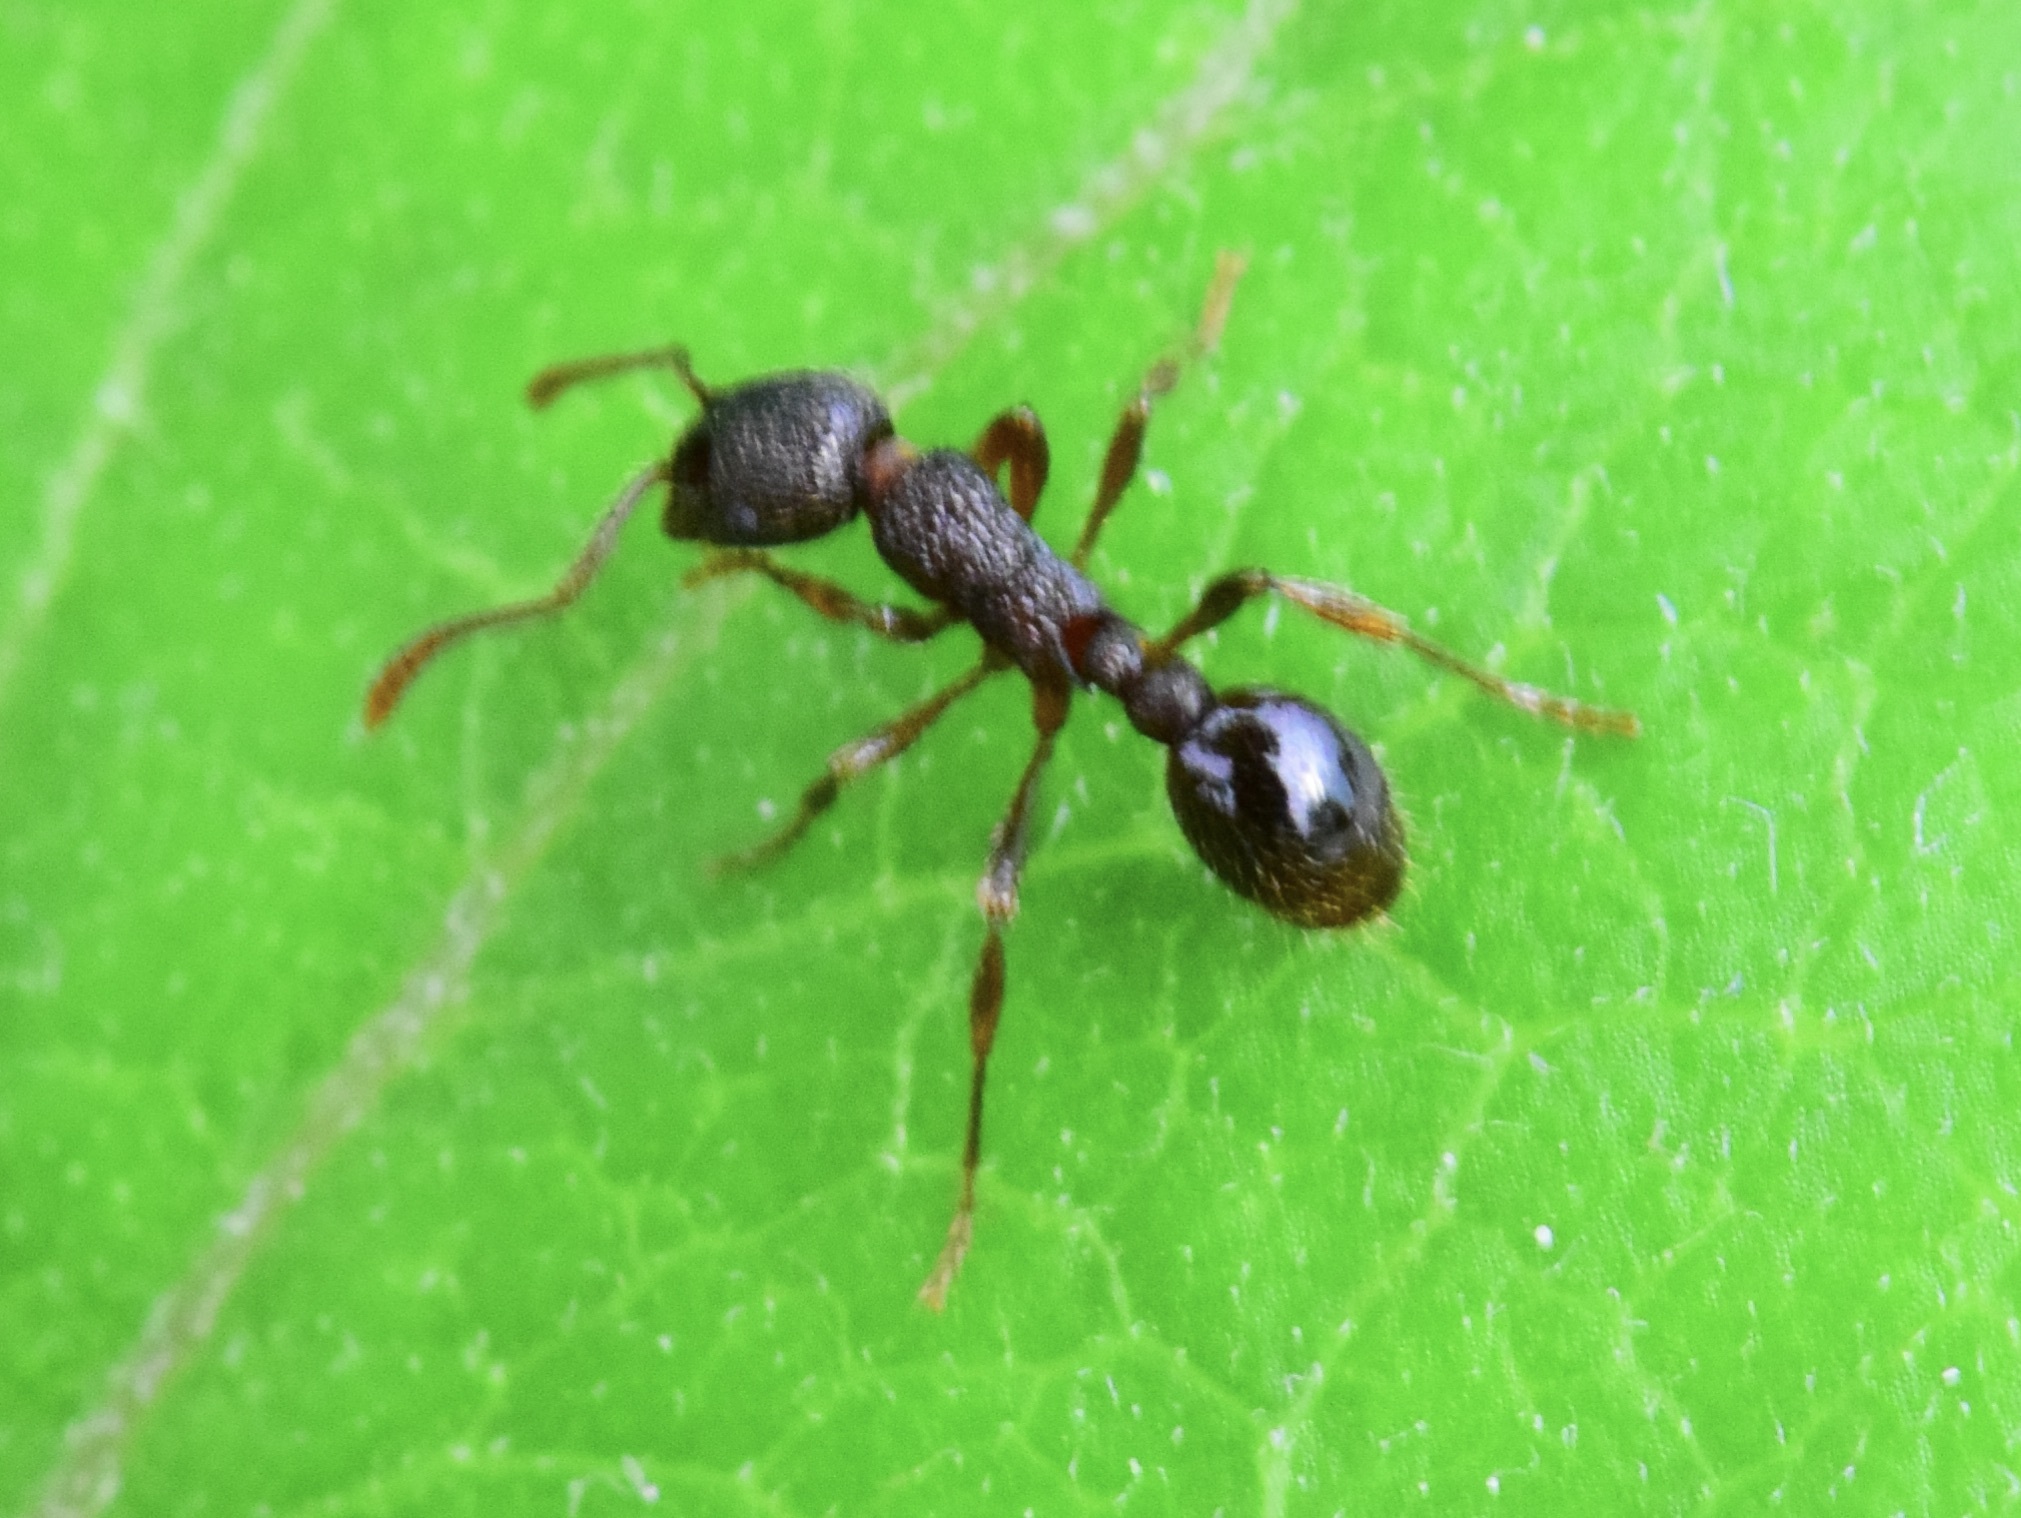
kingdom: Animalia
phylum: Arthropoda
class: Insecta
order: Hymenoptera
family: Formicidae
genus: Myrmica
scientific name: Myrmica
